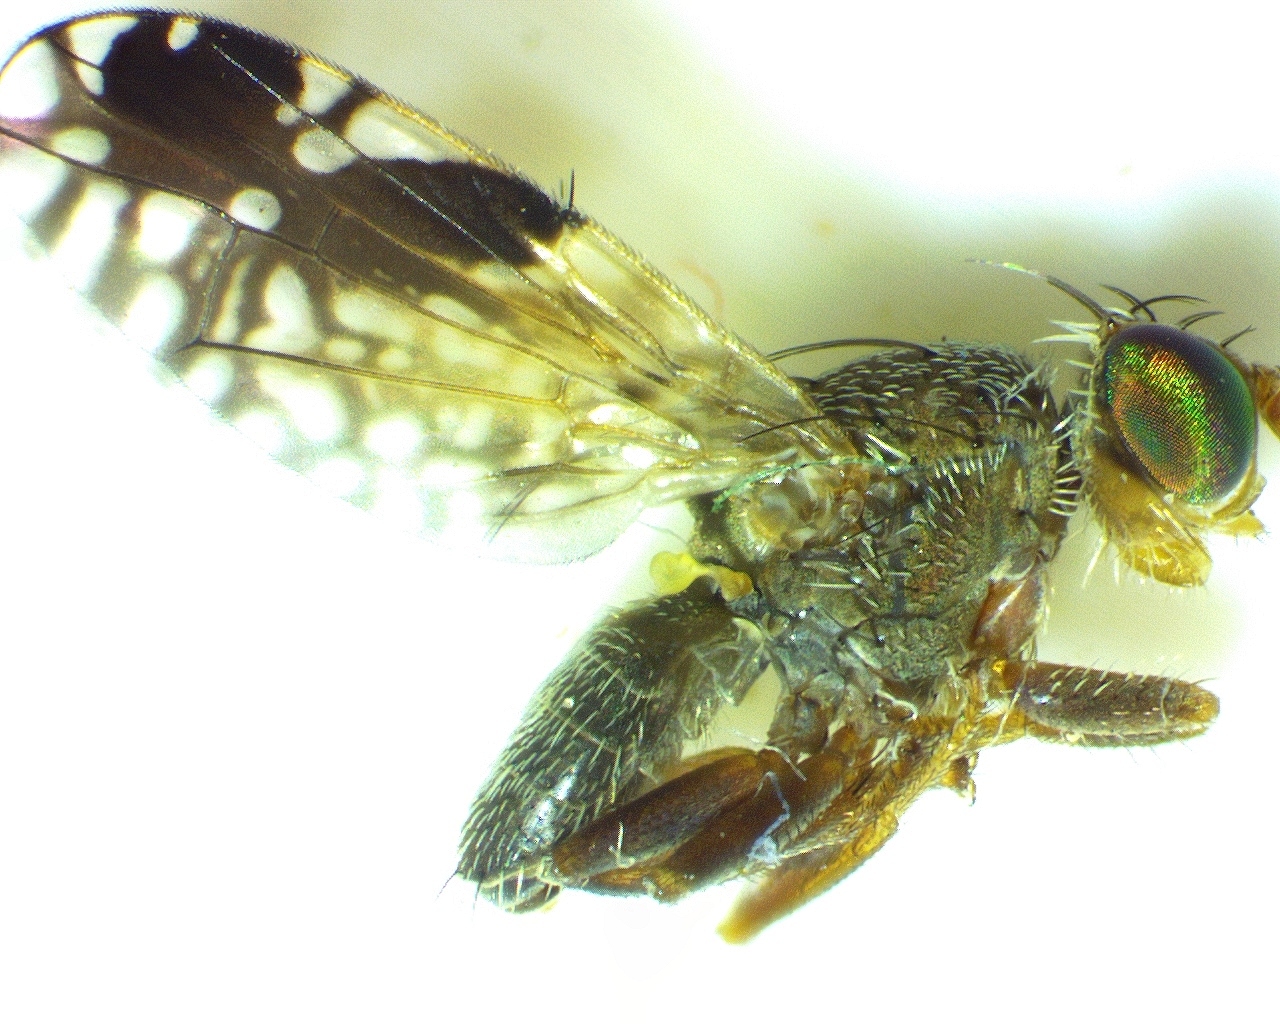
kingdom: Animalia
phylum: Arthropoda
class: Insecta
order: Diptera
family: Tephritidae
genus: Tephritis
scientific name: Tephritis subpura
